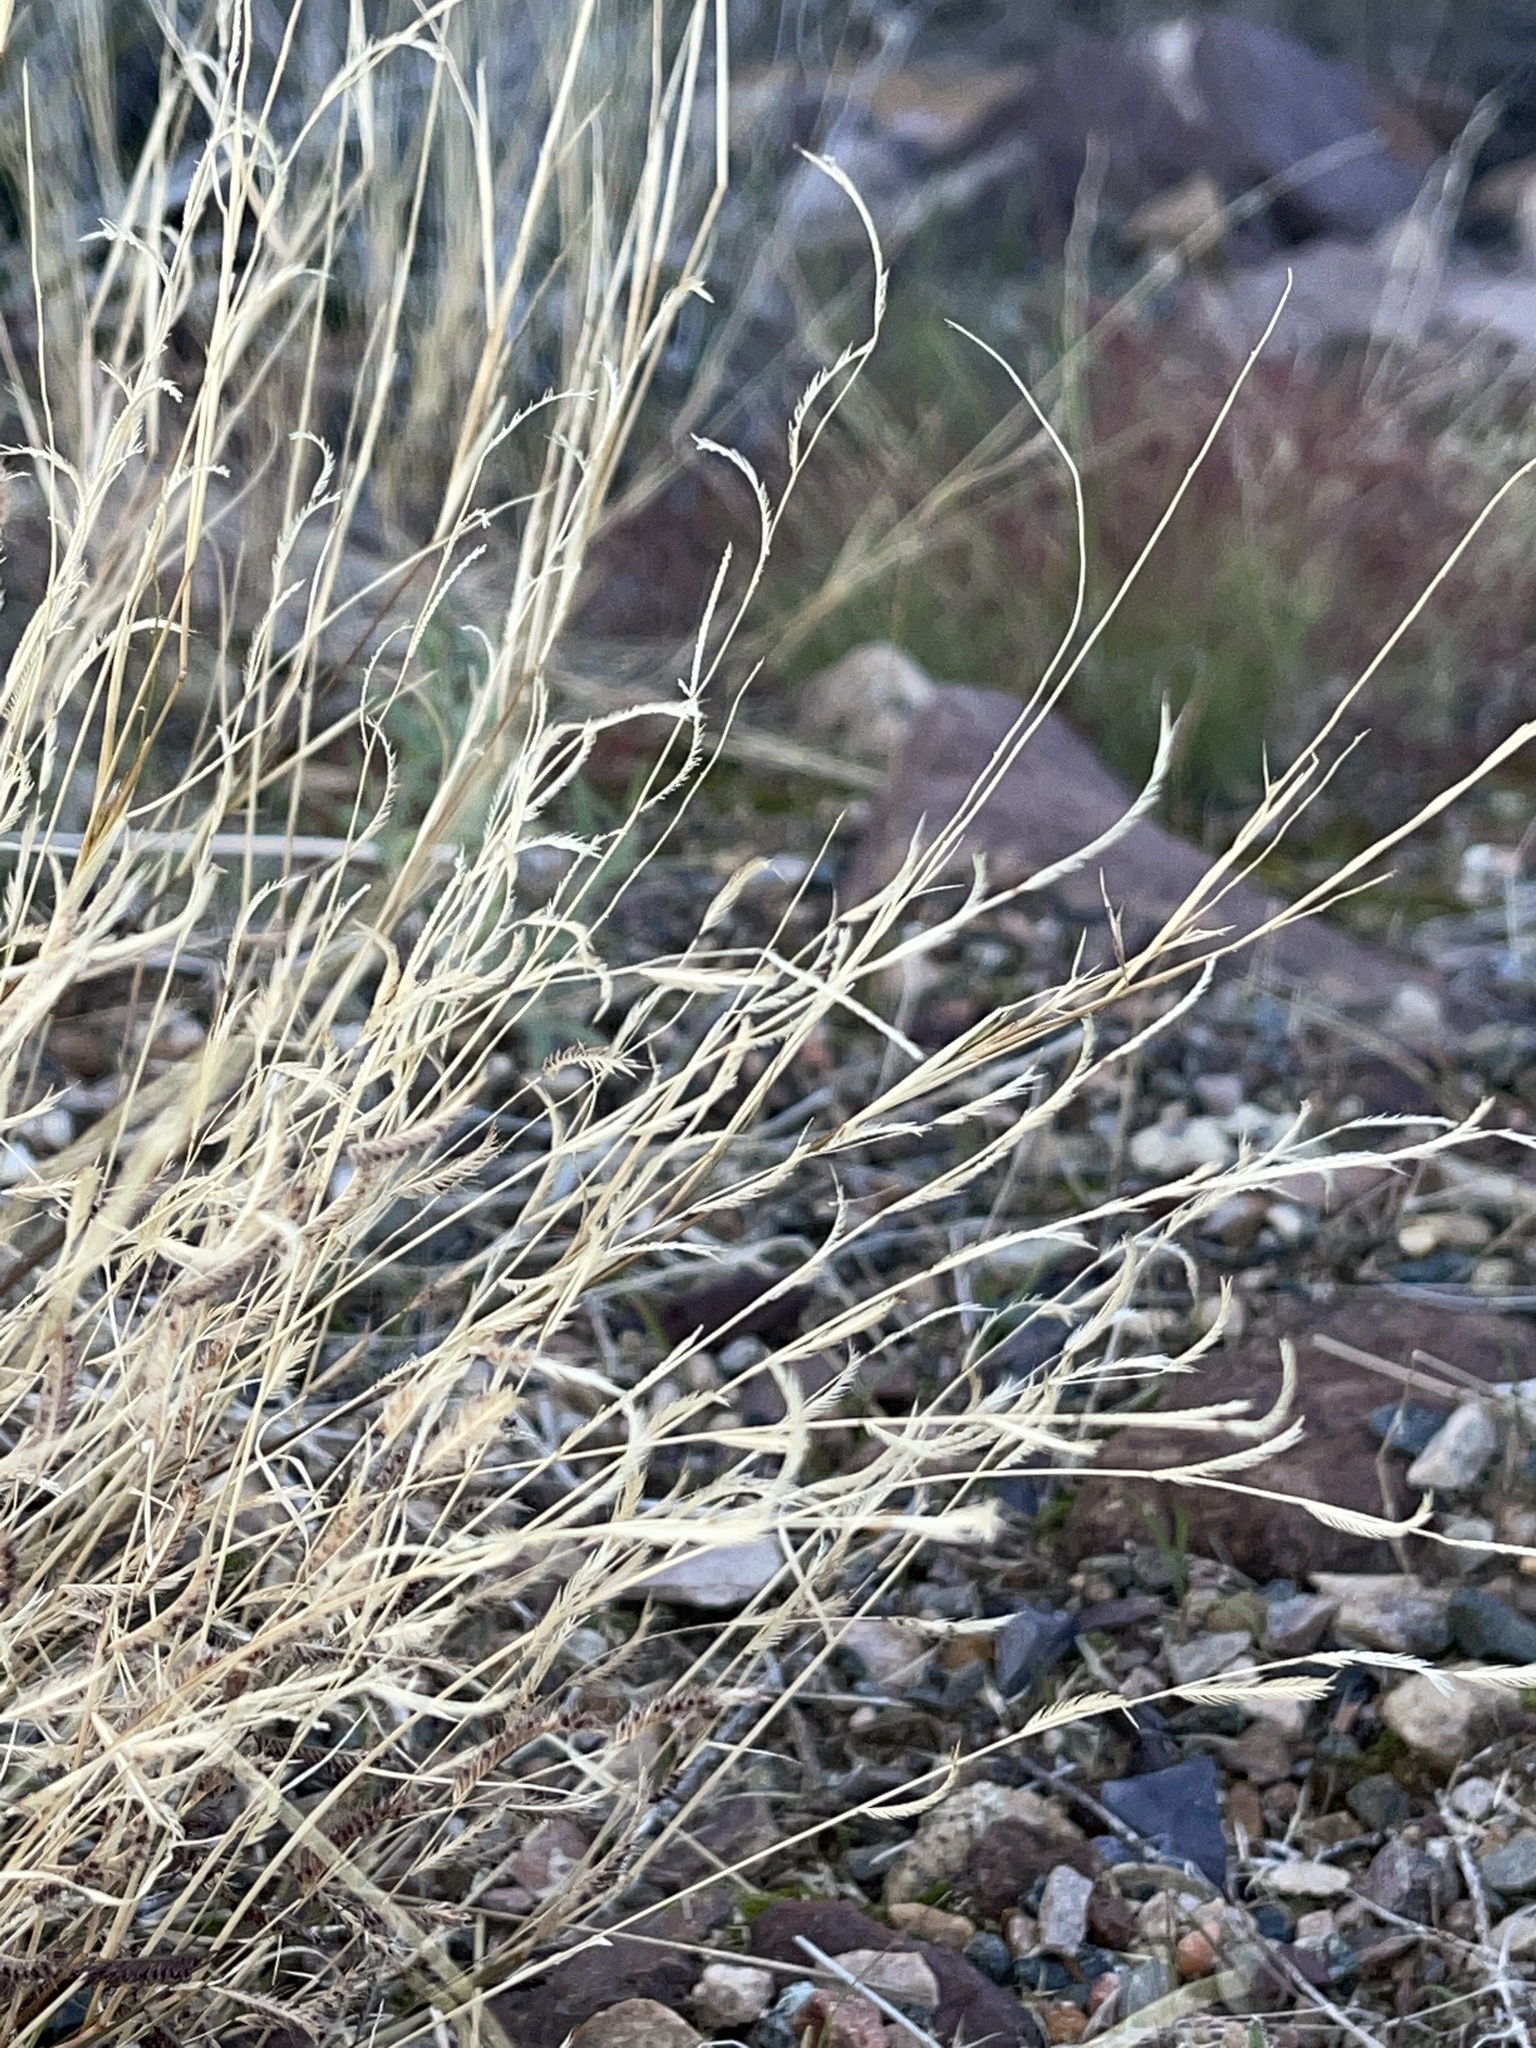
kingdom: Plantae
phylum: Tracheophyta
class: Liliopsida
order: Poales
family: Poaceae
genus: Bouteloua
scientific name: Bouteloua barbata
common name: Six-weeks grama
